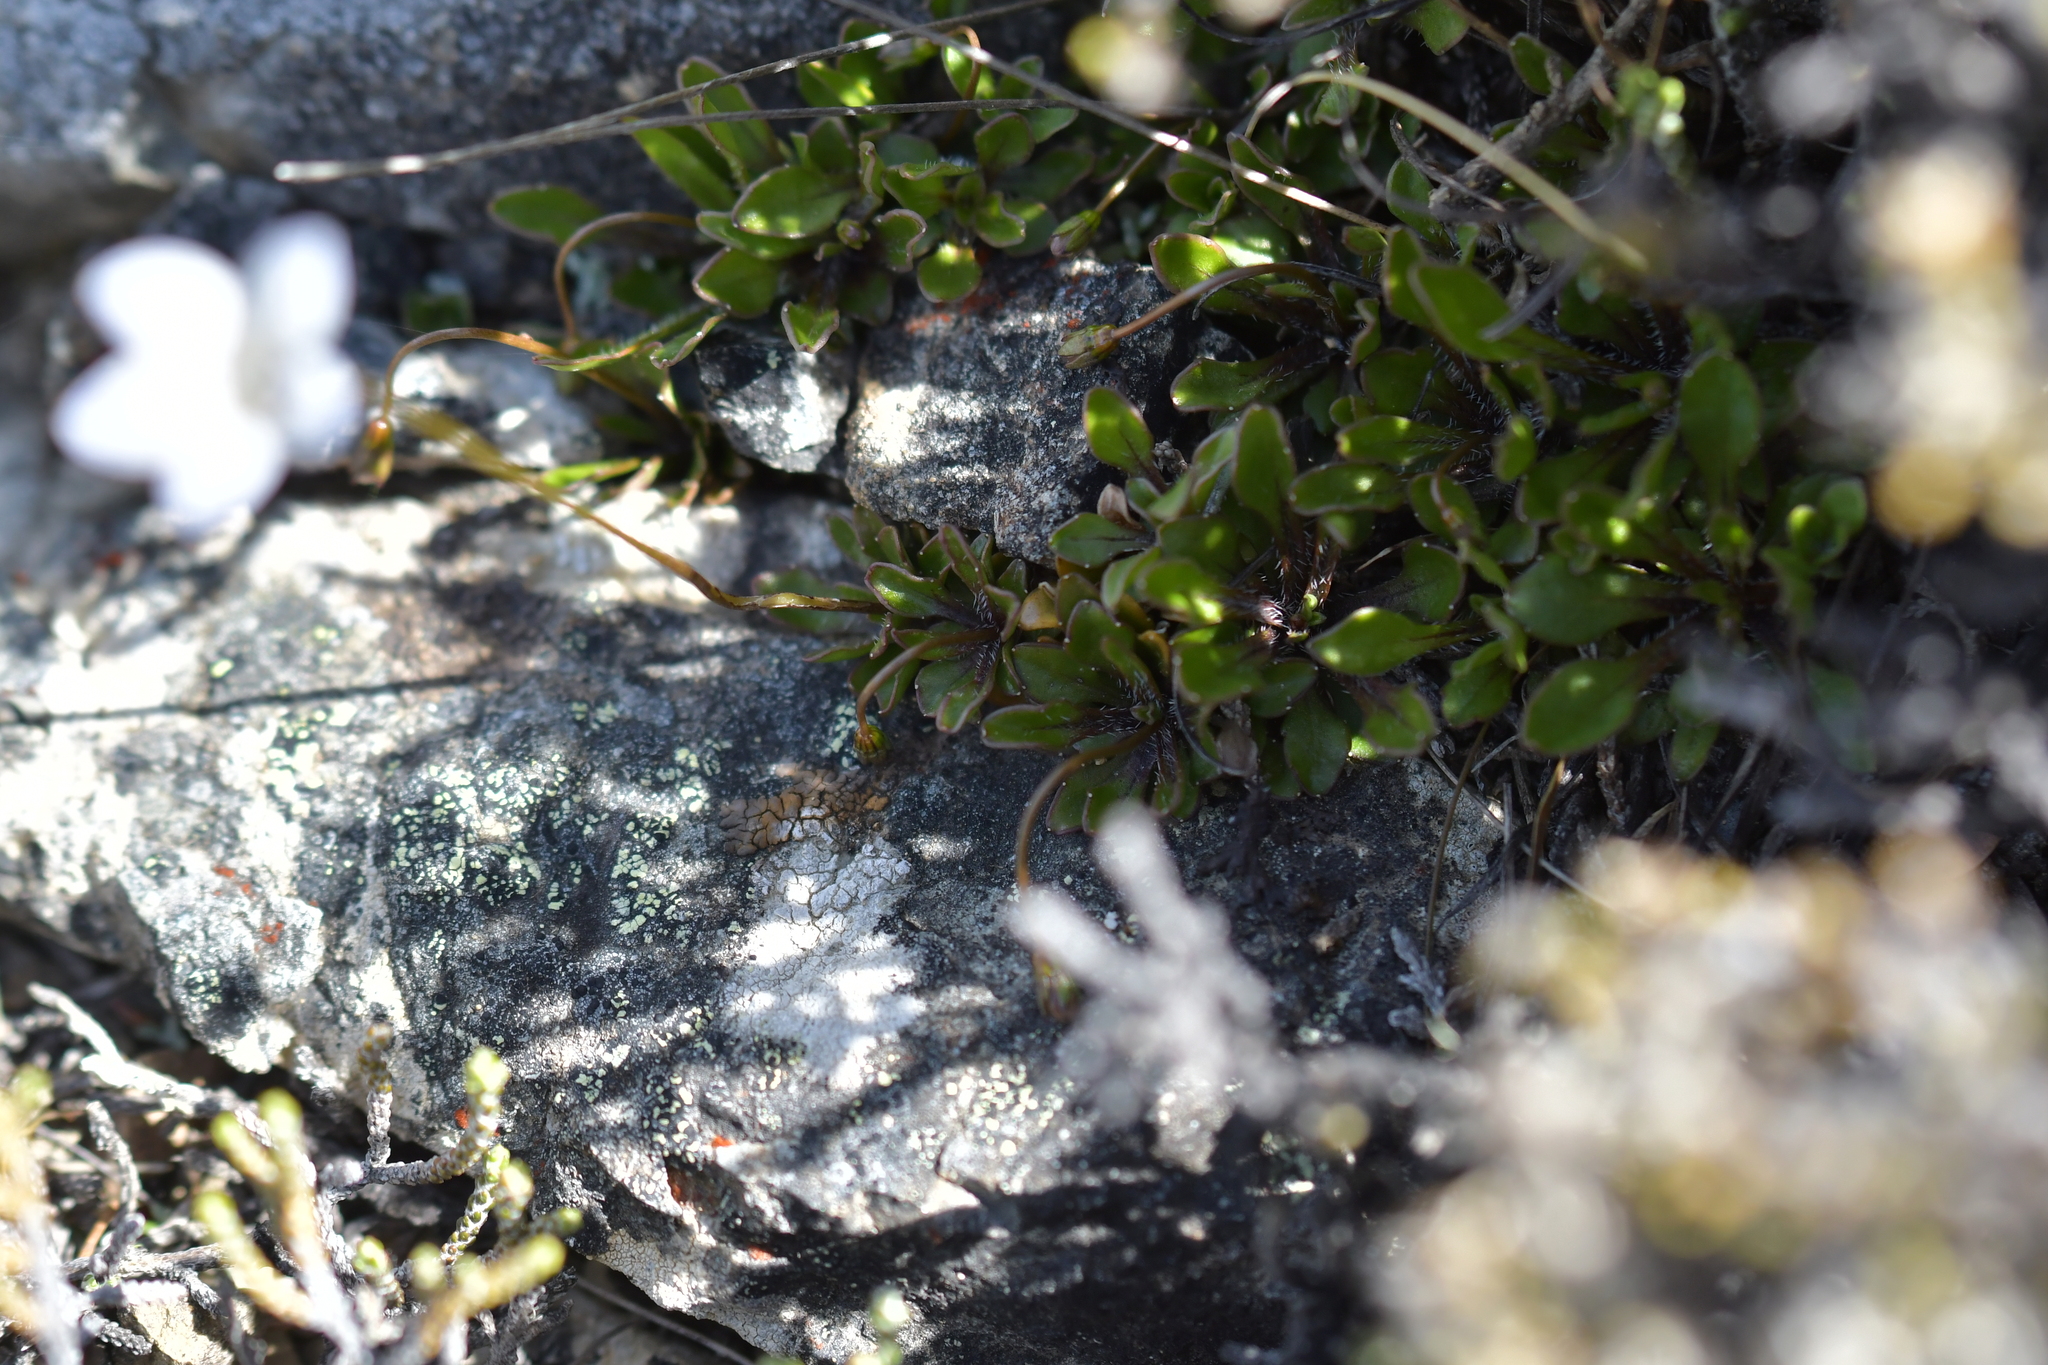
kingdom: Plantae
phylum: Tracheophyta
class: Magnoliopsida
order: Asterales
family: Campanulaceae
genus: Wahlenbergia
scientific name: Wahlenbergia albomarginata
